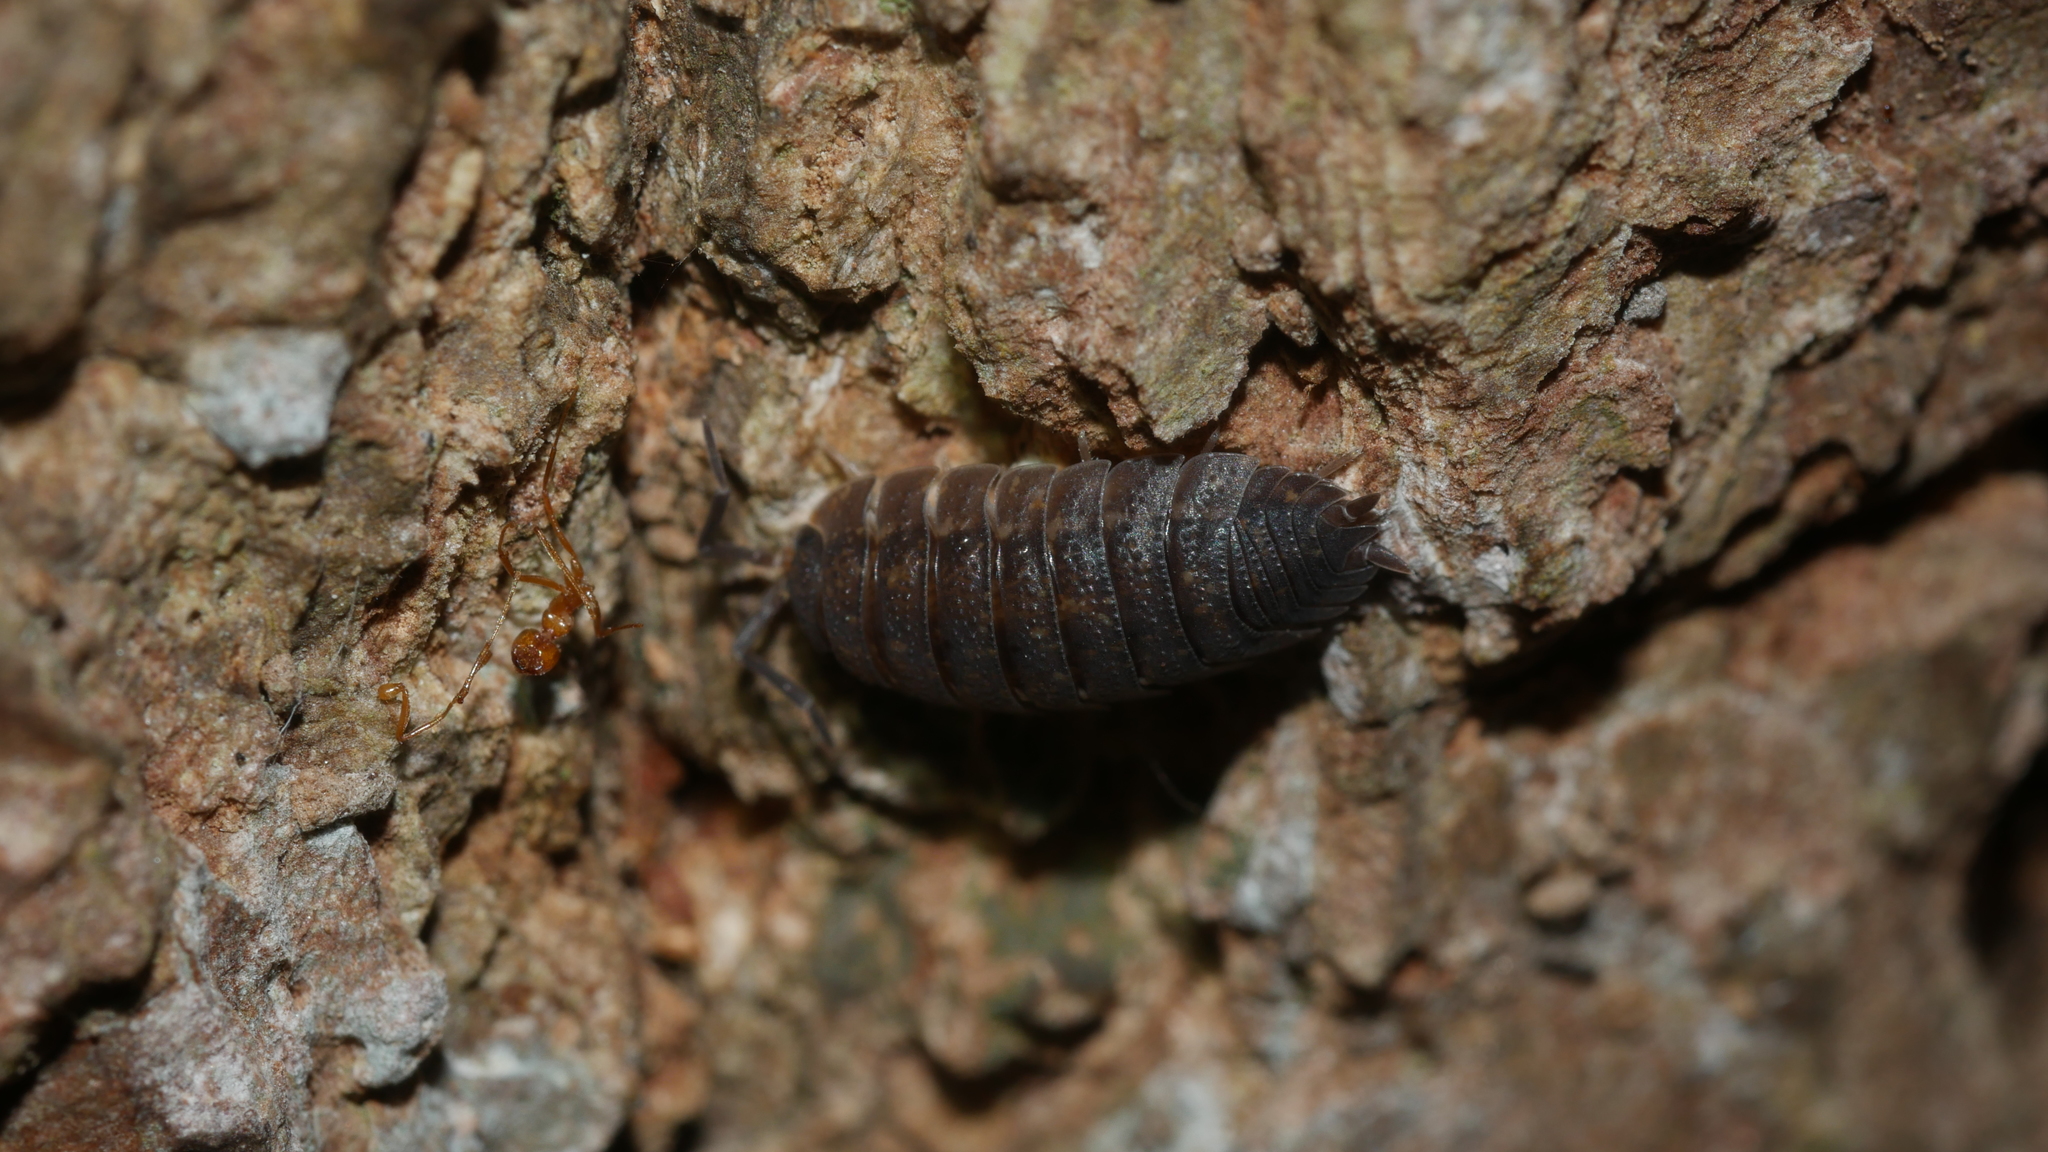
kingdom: Animalia
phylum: Arthropoda
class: Malacostraca
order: Isopoda
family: Porcellionidae
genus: Porcellio
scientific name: Porcellio scaber
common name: Common rough woodlouse
